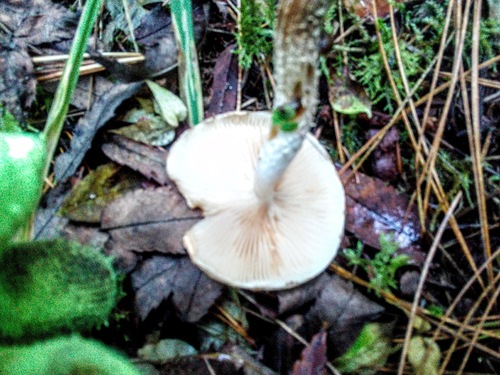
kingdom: Fungi
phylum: Basidiomycota
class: Agaricomycetes
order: Agaricales
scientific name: Agaricales
